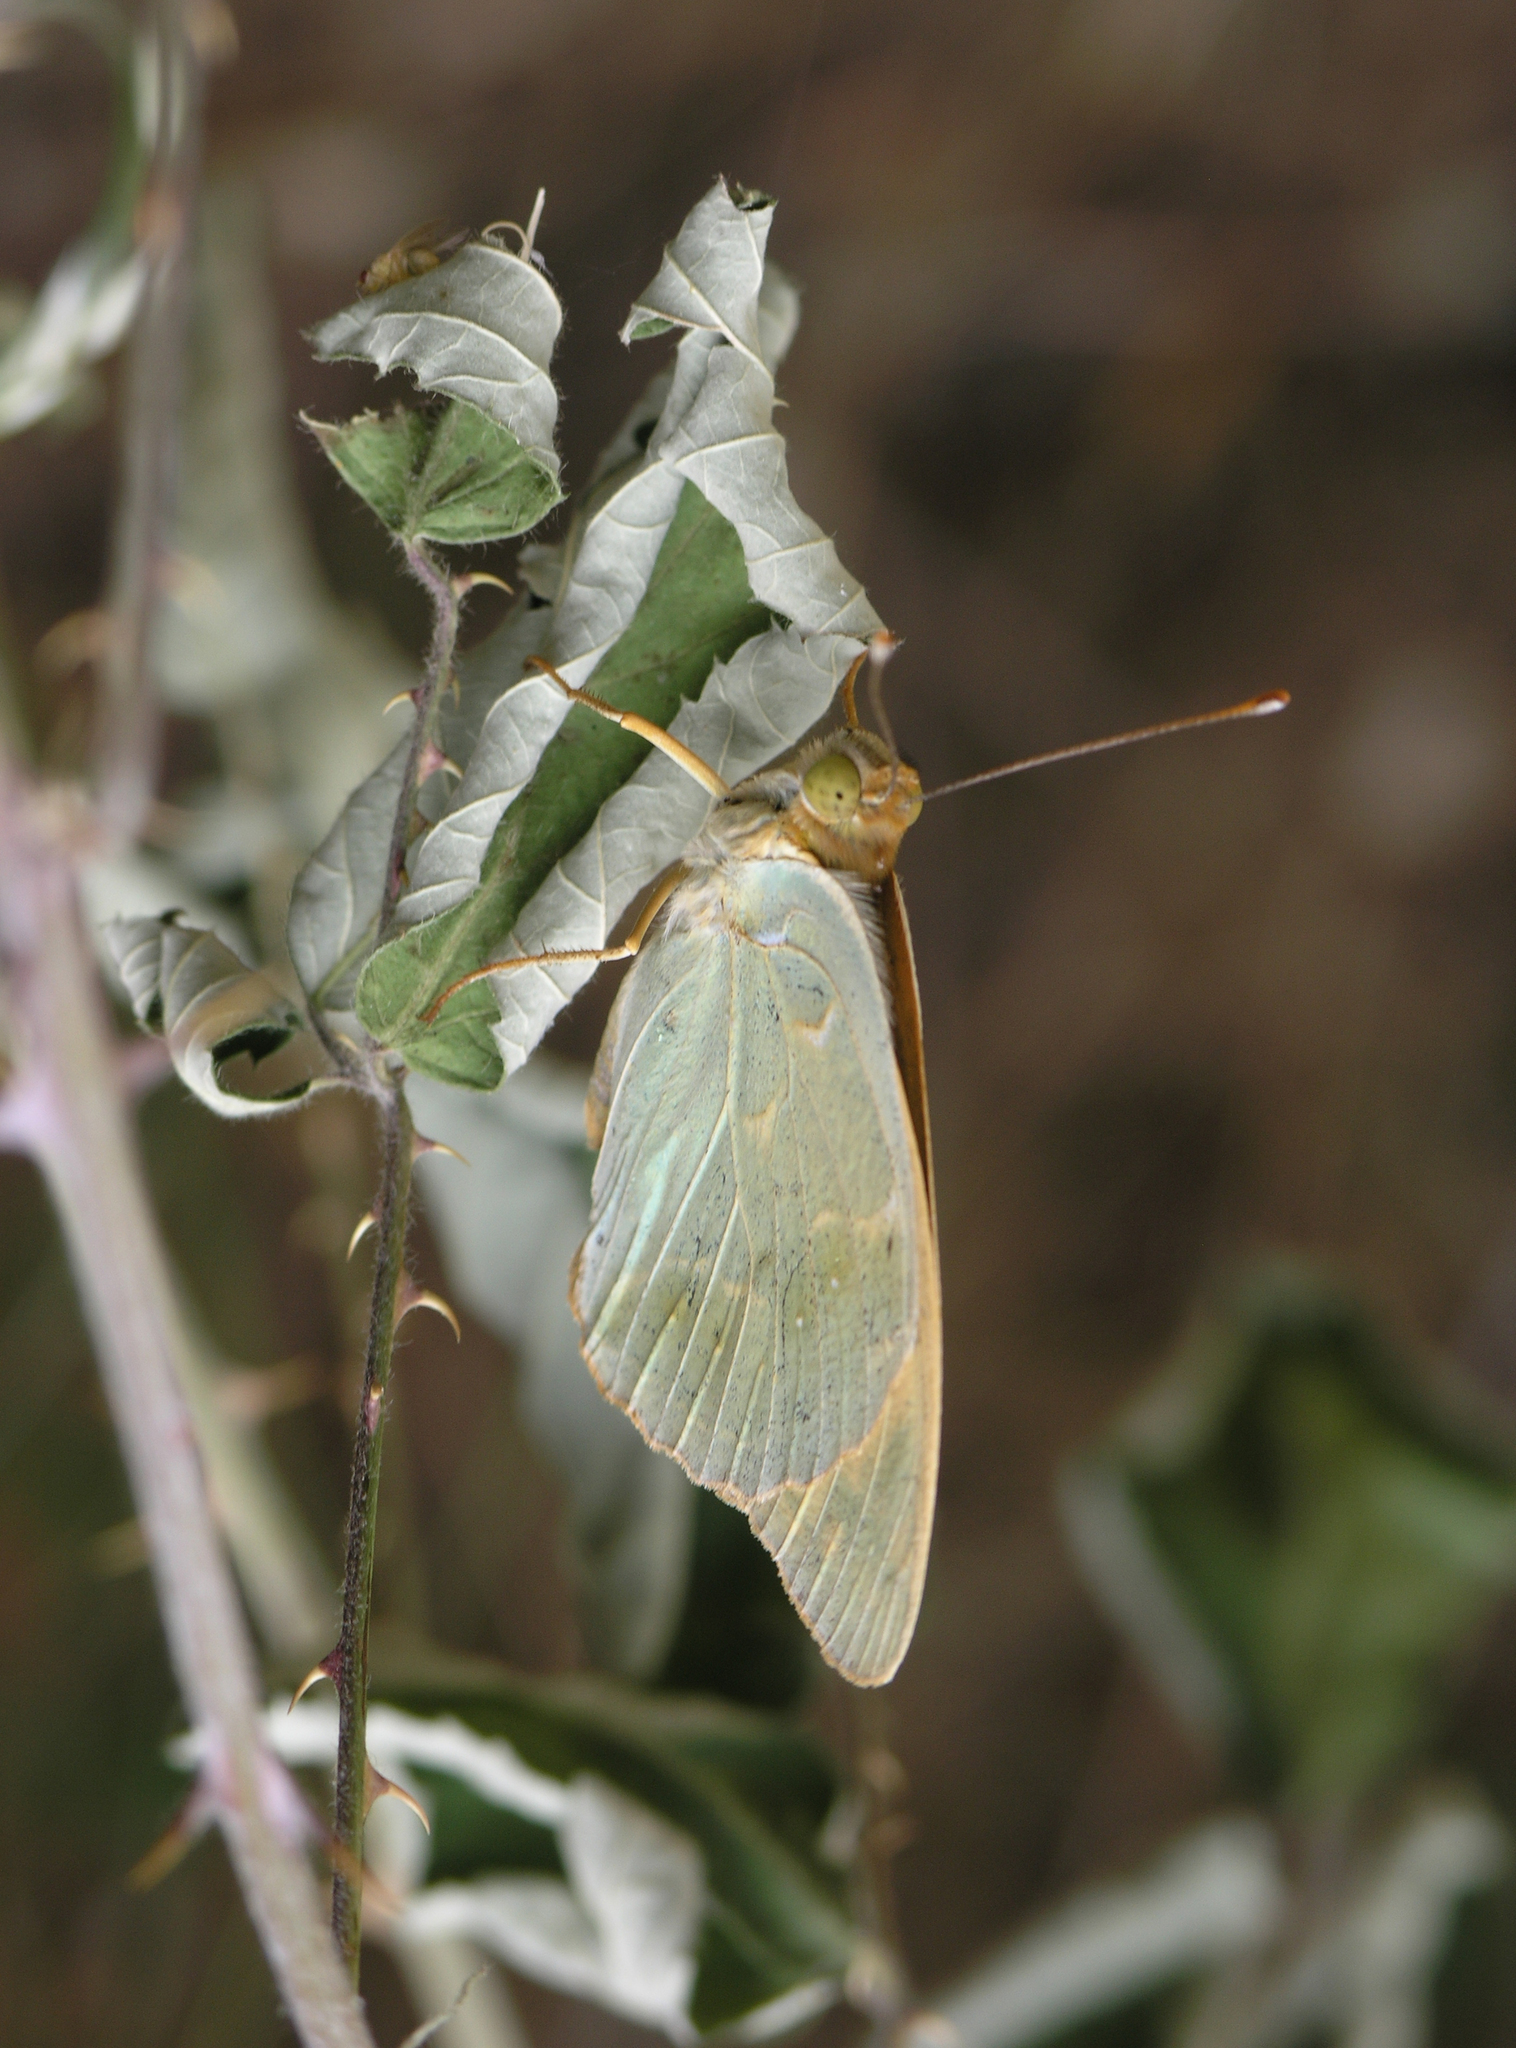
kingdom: Animalia
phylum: Arthropoda
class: Insecta
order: Lepidoptera
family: Nymphalidae
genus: Damora
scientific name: Damora pandora
